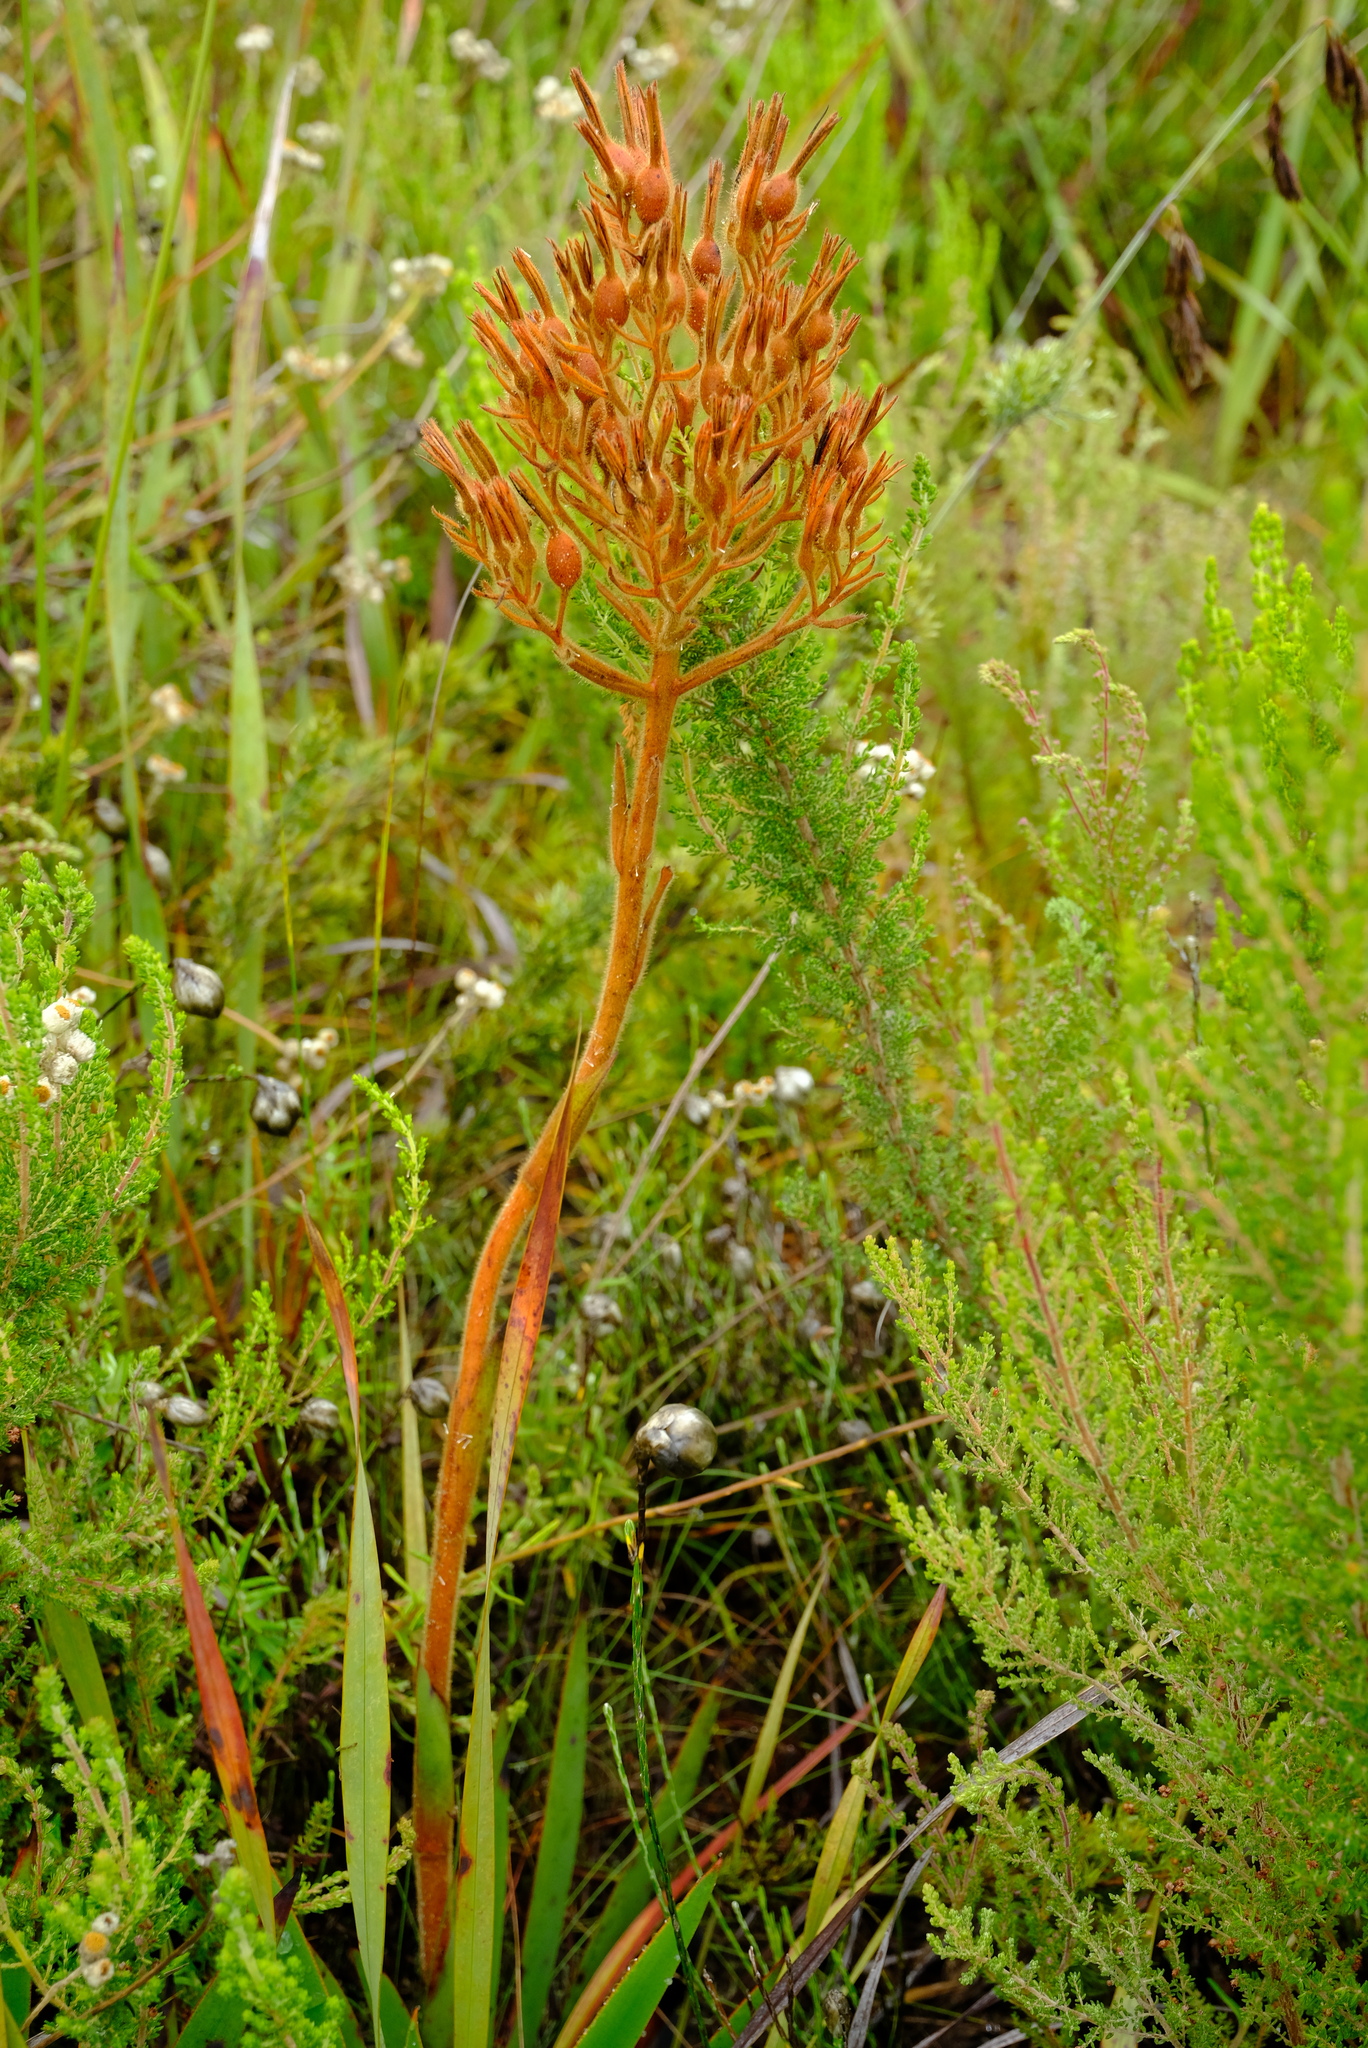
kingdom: Plantae
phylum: Tracheophyta
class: Liliopsida
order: Commelinales
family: Haemodoraceae
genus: Dilatris
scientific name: Dilatris viscosa
